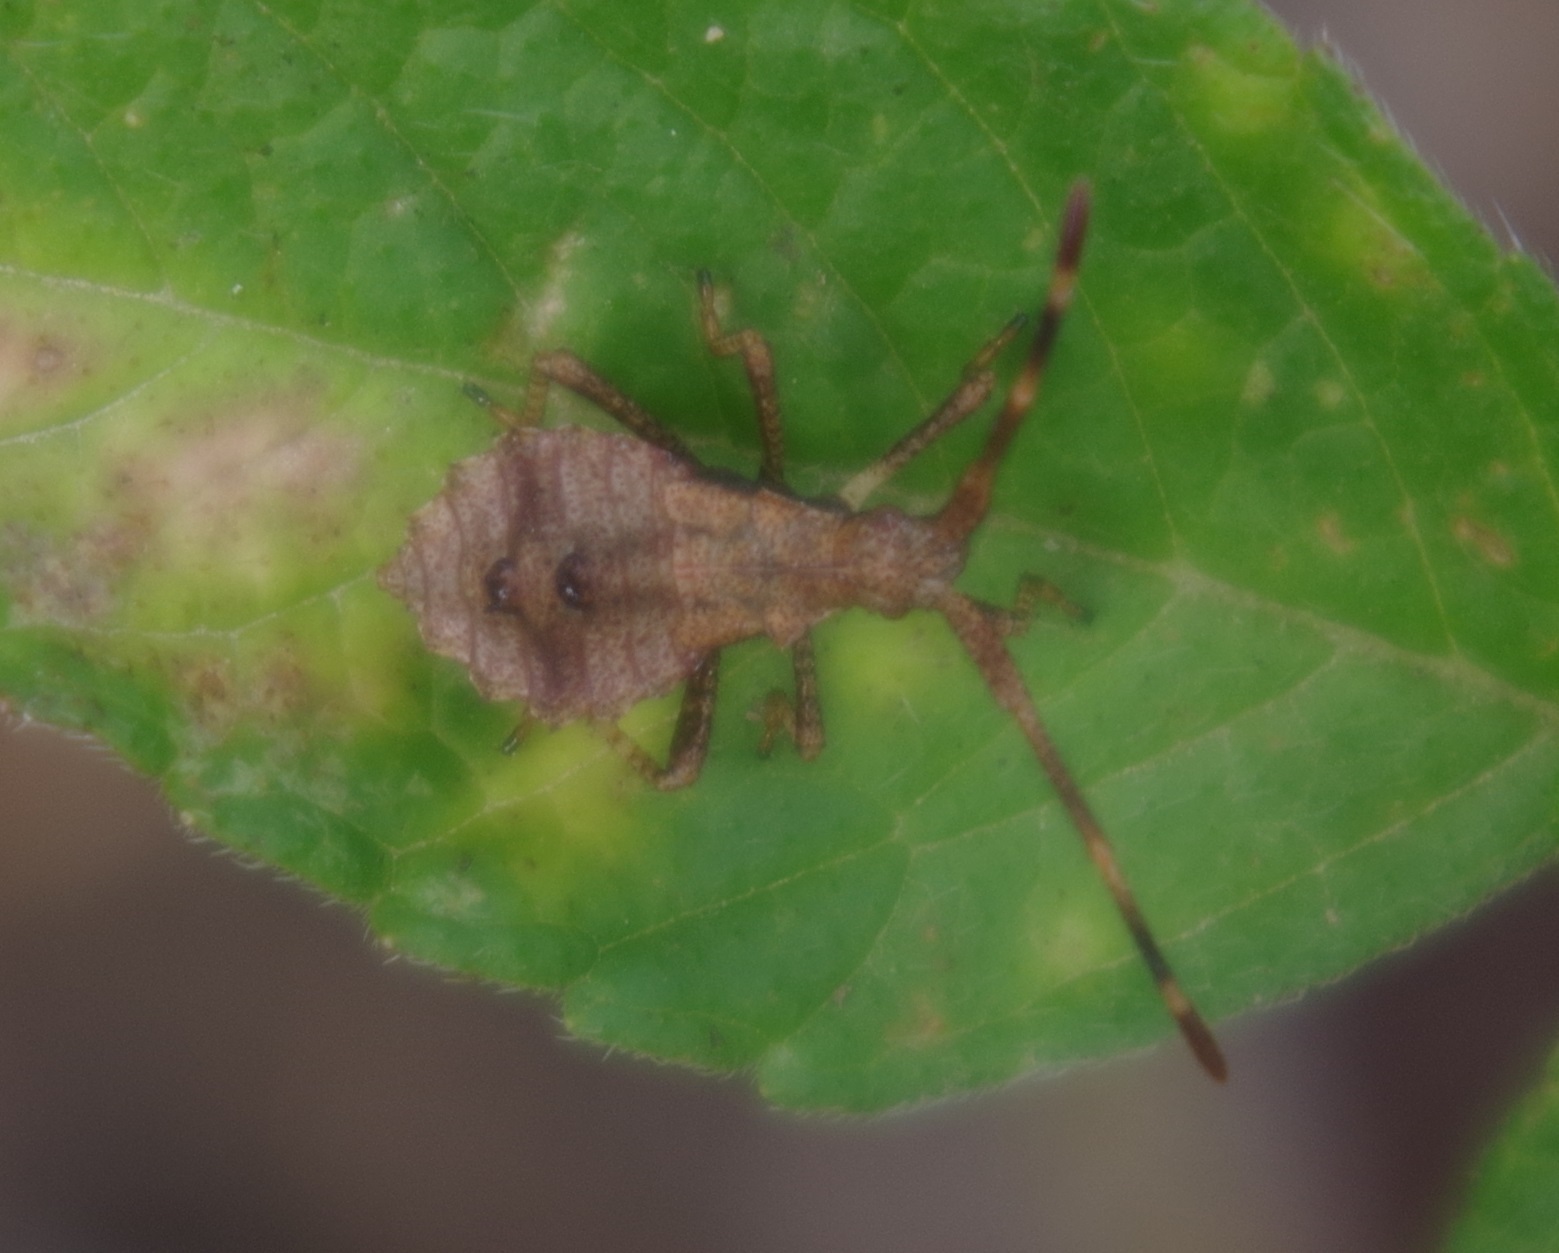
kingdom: Animalia
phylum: Arthropoda
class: Insecta
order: Hemiptera
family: Coreidae
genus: Coreus
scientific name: Coreus marginatus
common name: Dock bug
